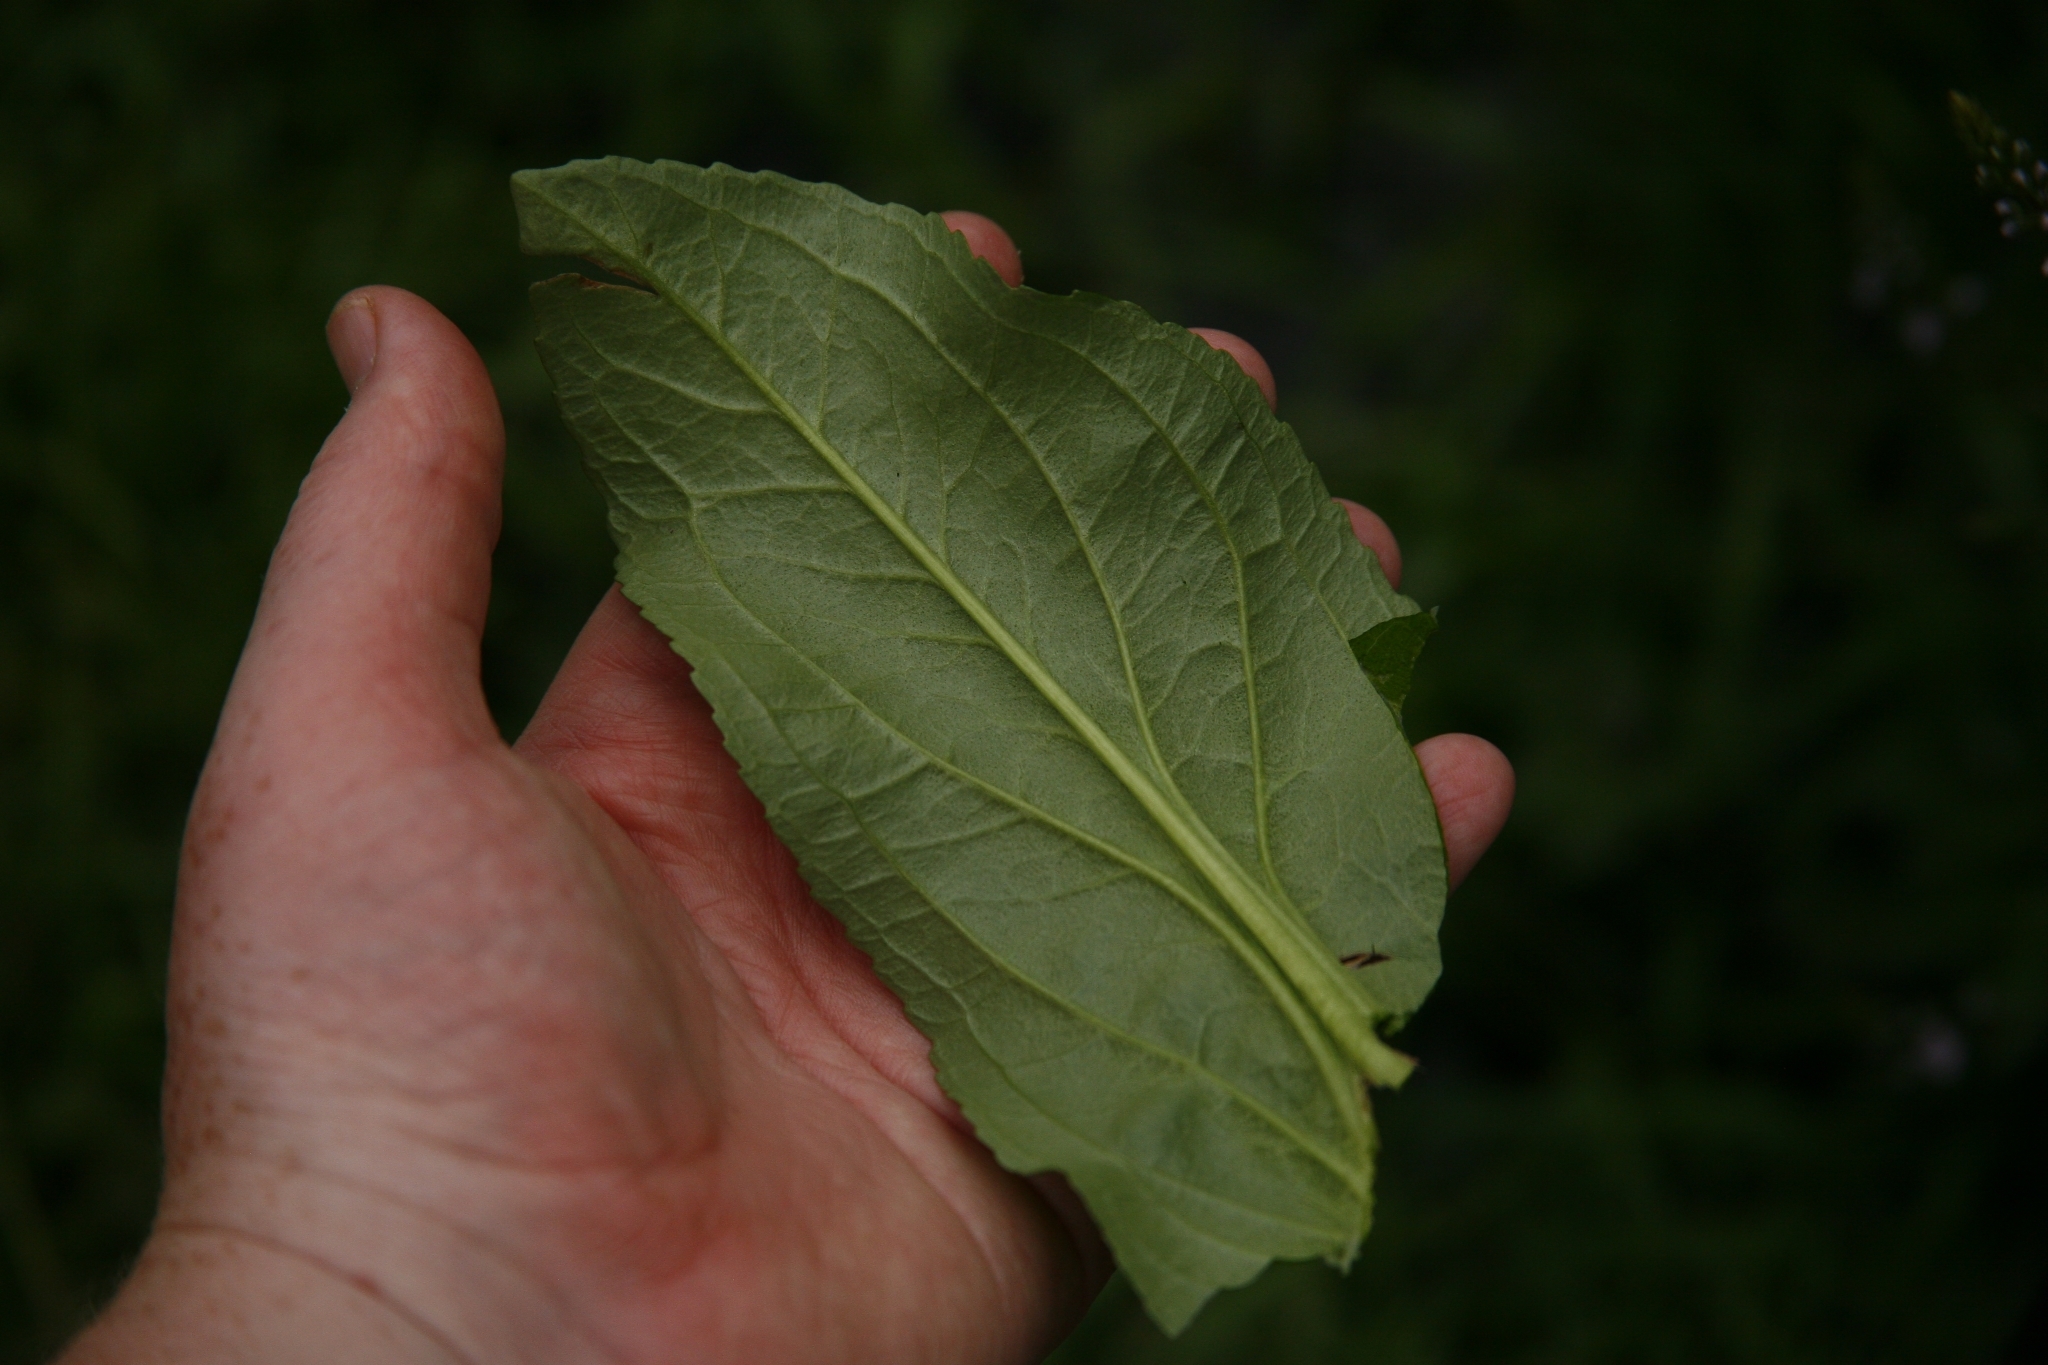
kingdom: Plantae
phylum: Tracheophyta
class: Magnoliopsida
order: Lamiales
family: Plantaginaceae
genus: Veronica
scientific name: Veronica anagallis-aquatica
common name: Water speedwell
